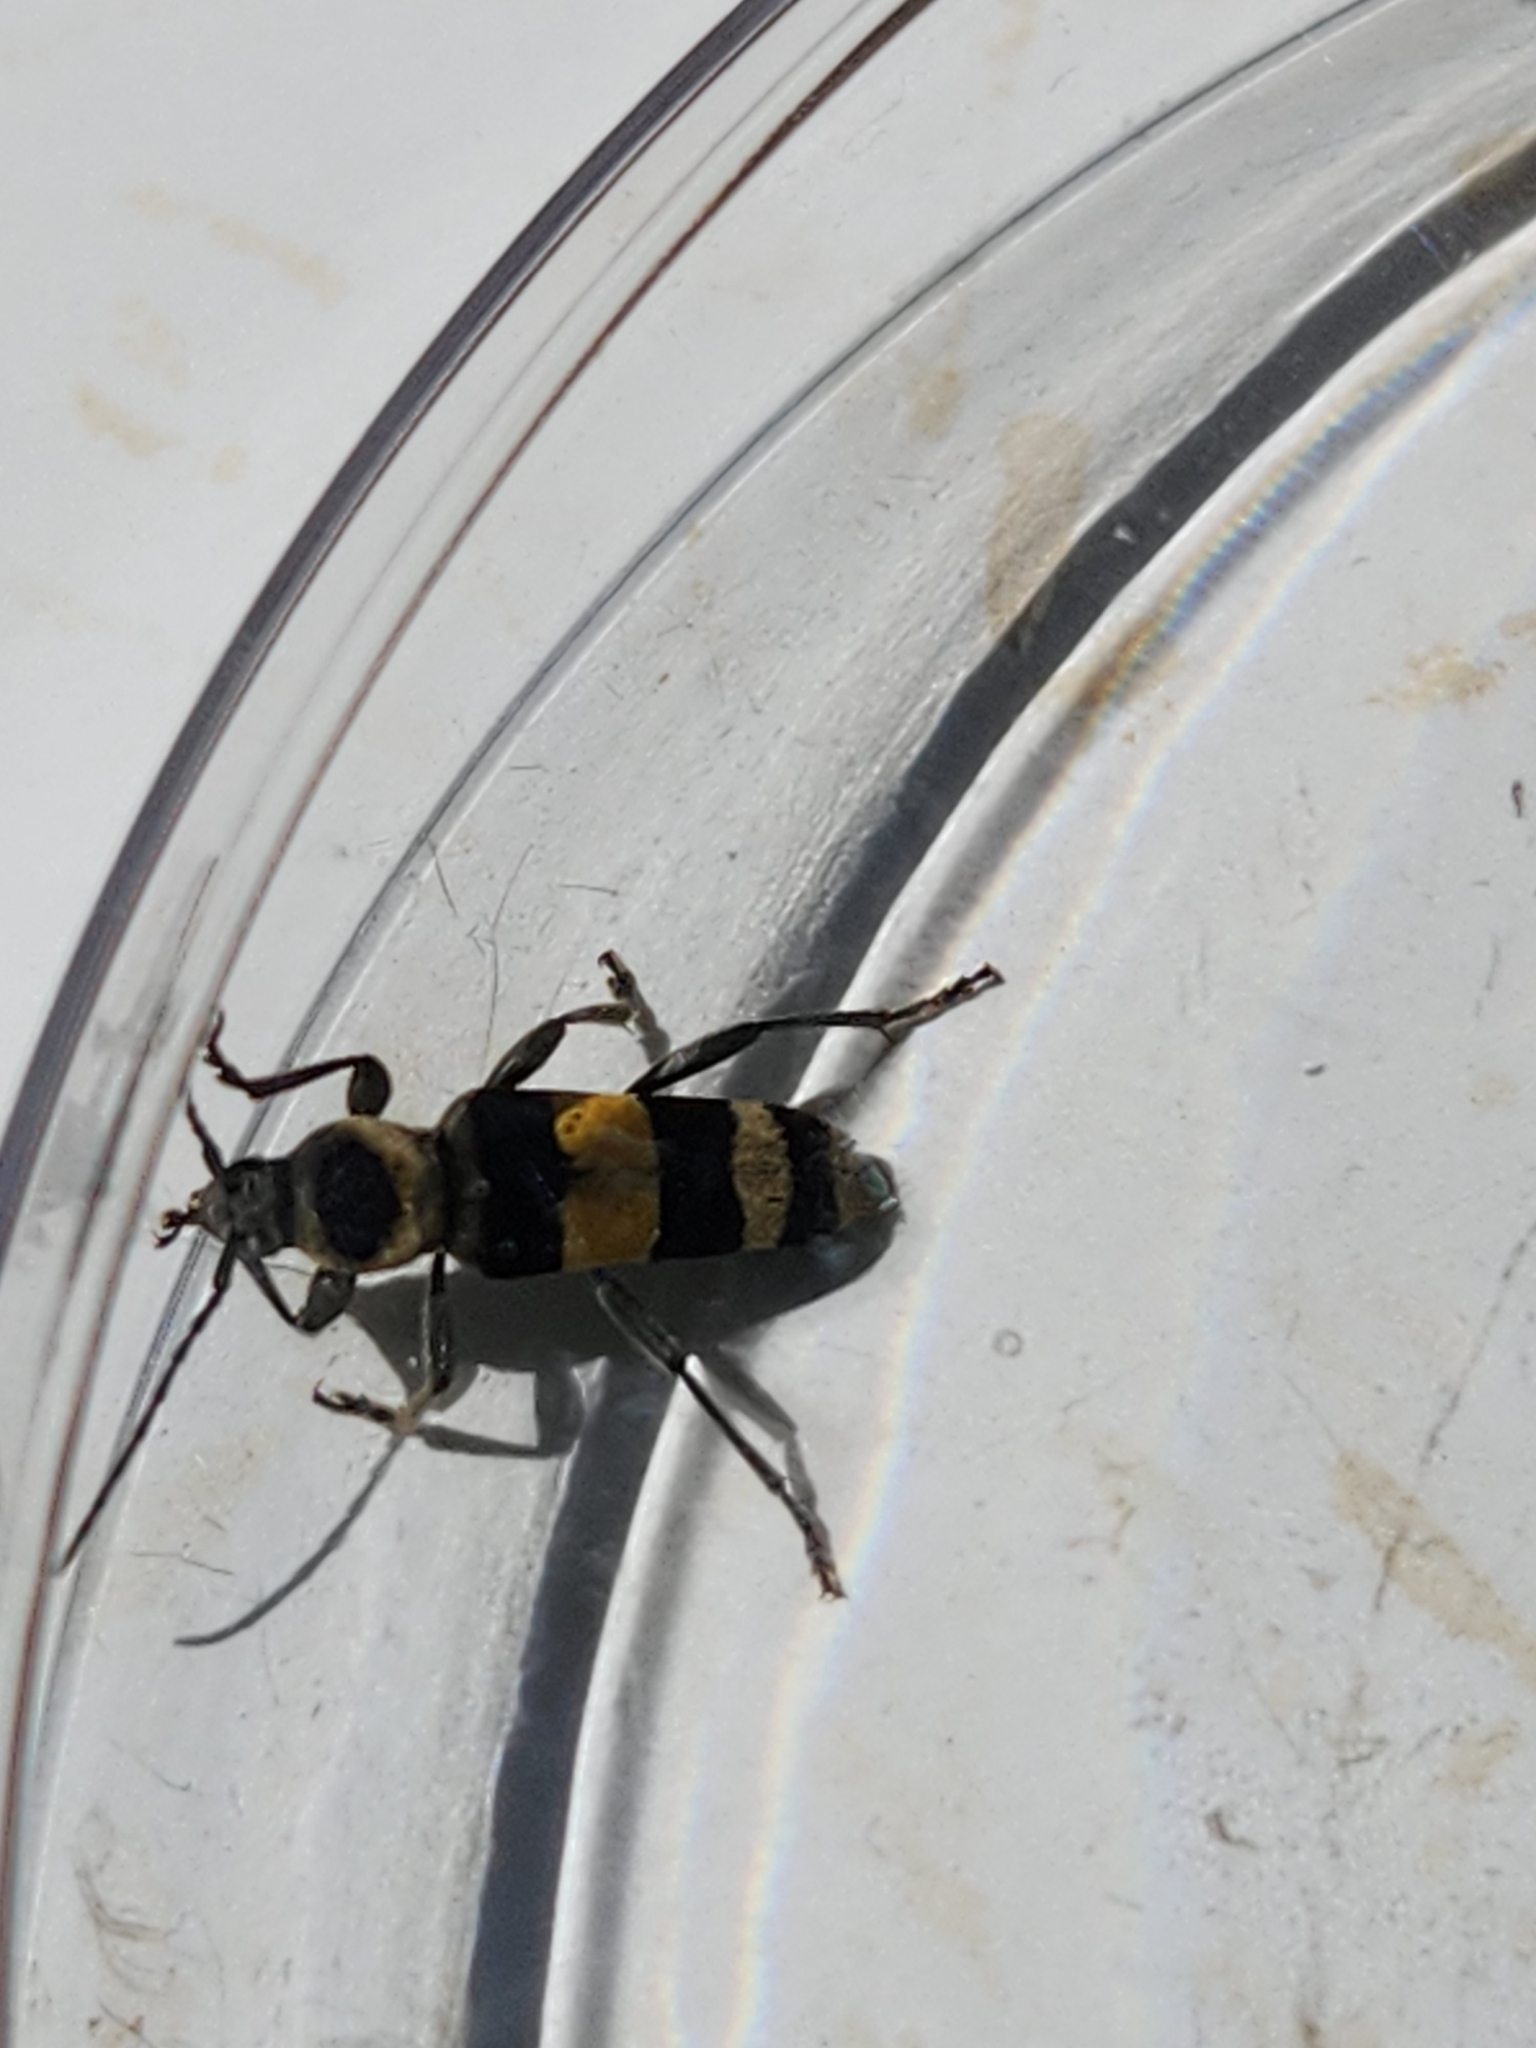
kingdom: Animalia
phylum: Arthropoda
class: Insecta
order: Coleoptera
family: Cerambycidae
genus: Anthoboscus
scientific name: Anthoboscus tricolor
